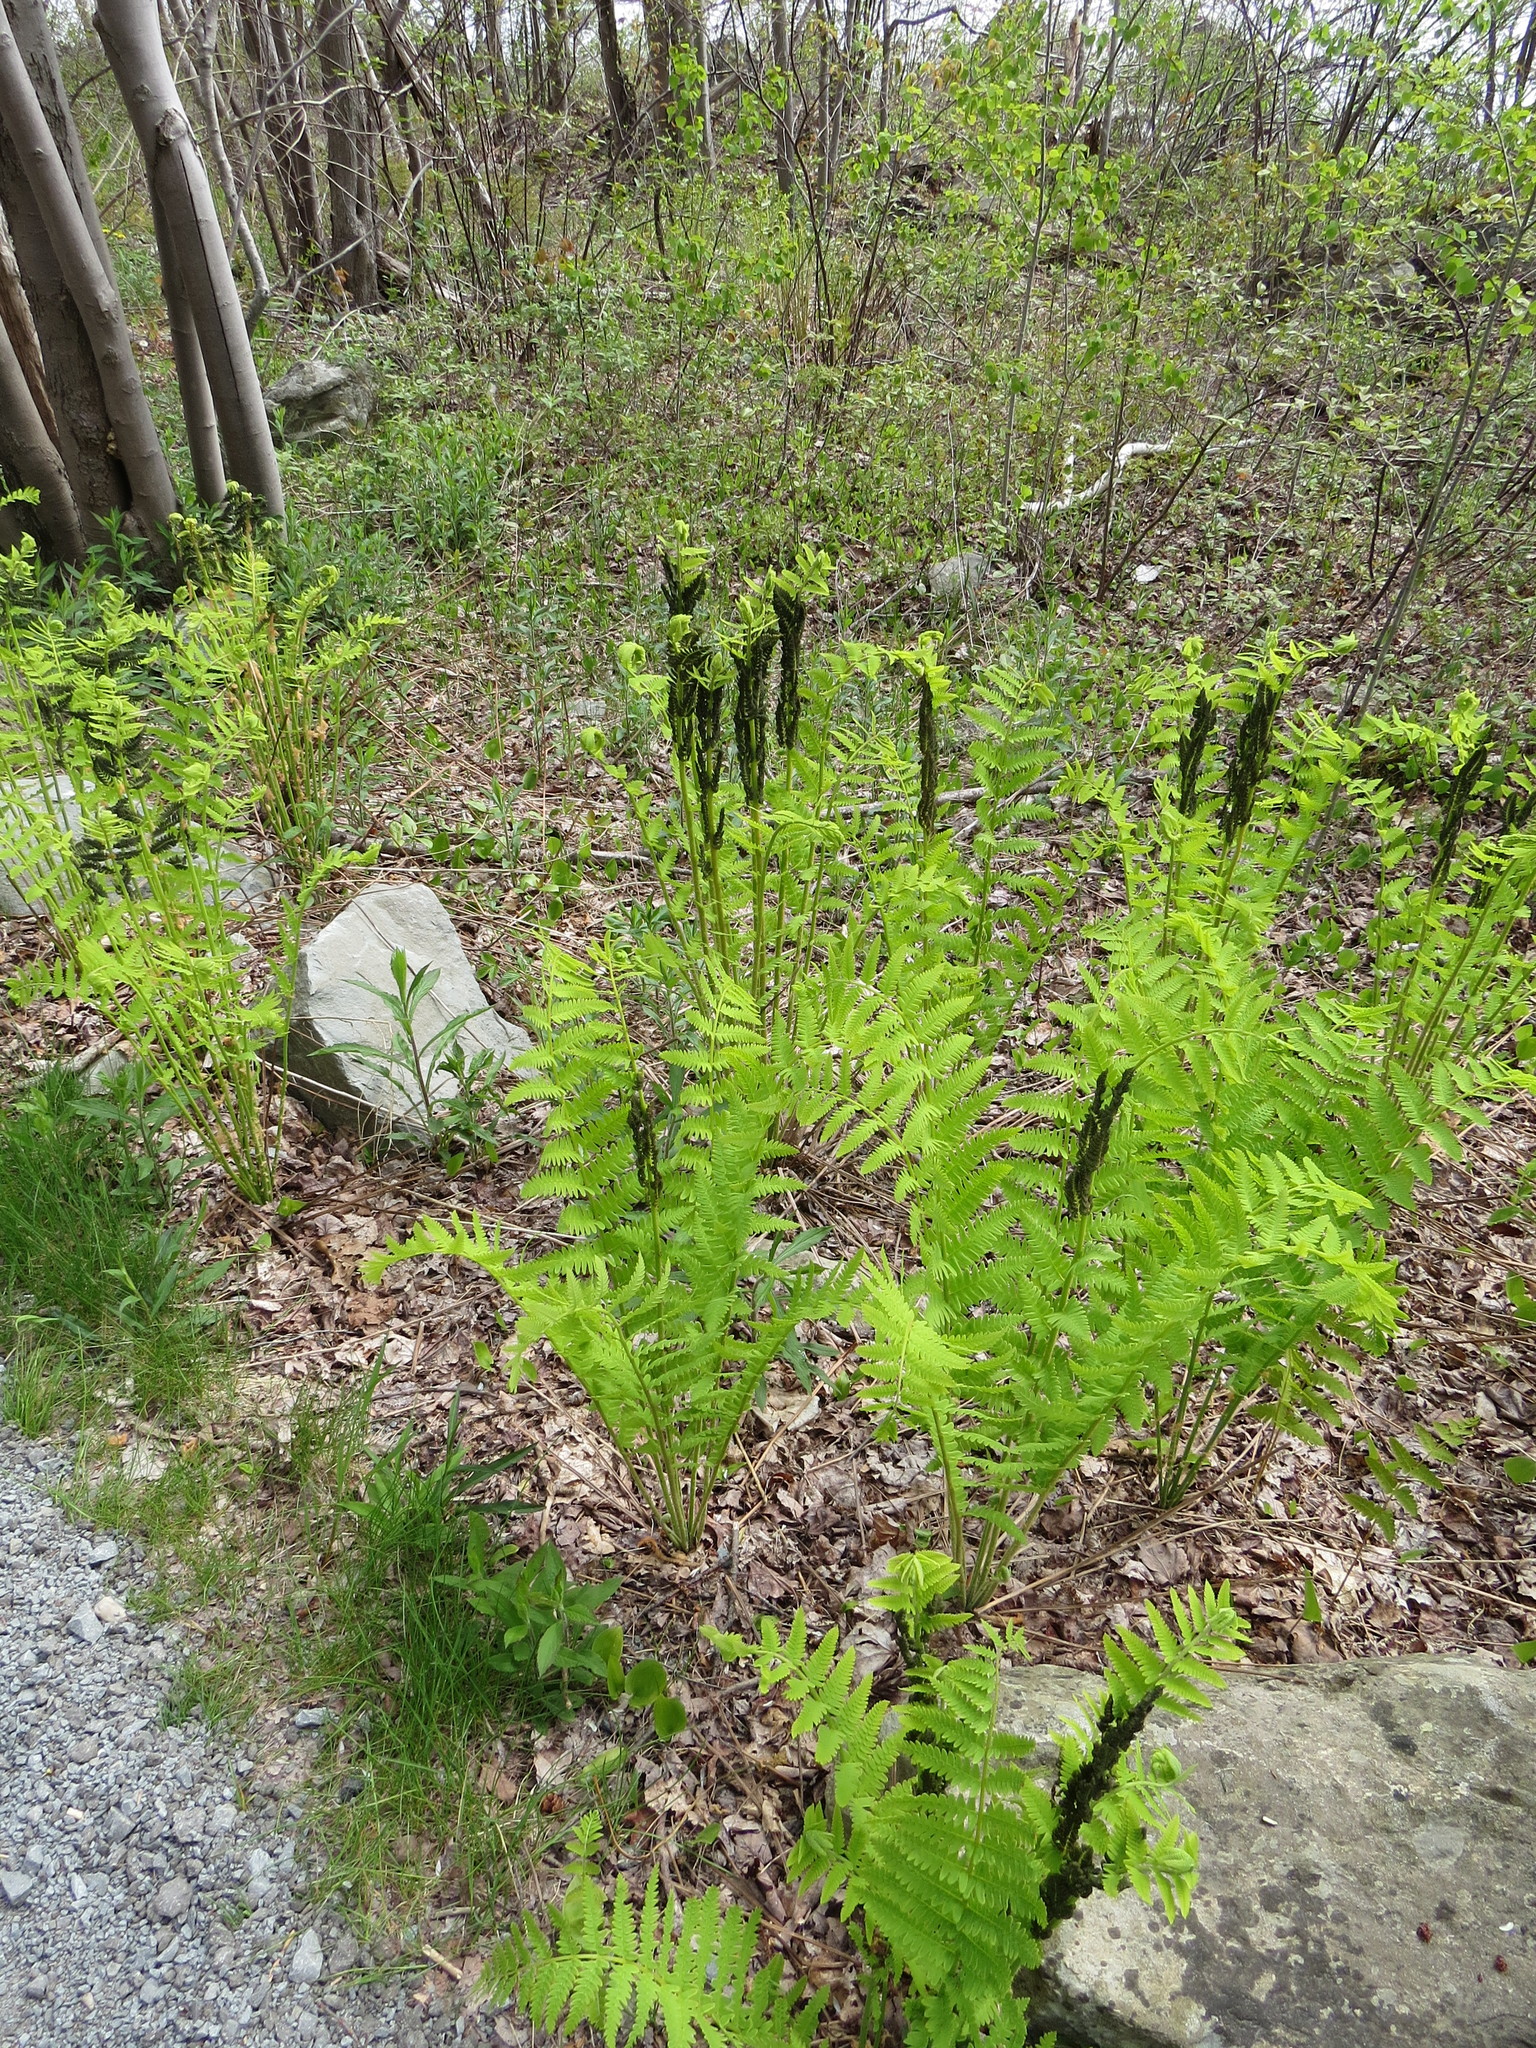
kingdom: Plantae
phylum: Tracheophyta
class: Polypodiopsida
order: Osmundales
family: Osmundaceae
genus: Claytosmunda
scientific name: Claytosmunda claytoniana
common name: Clayton's fern
